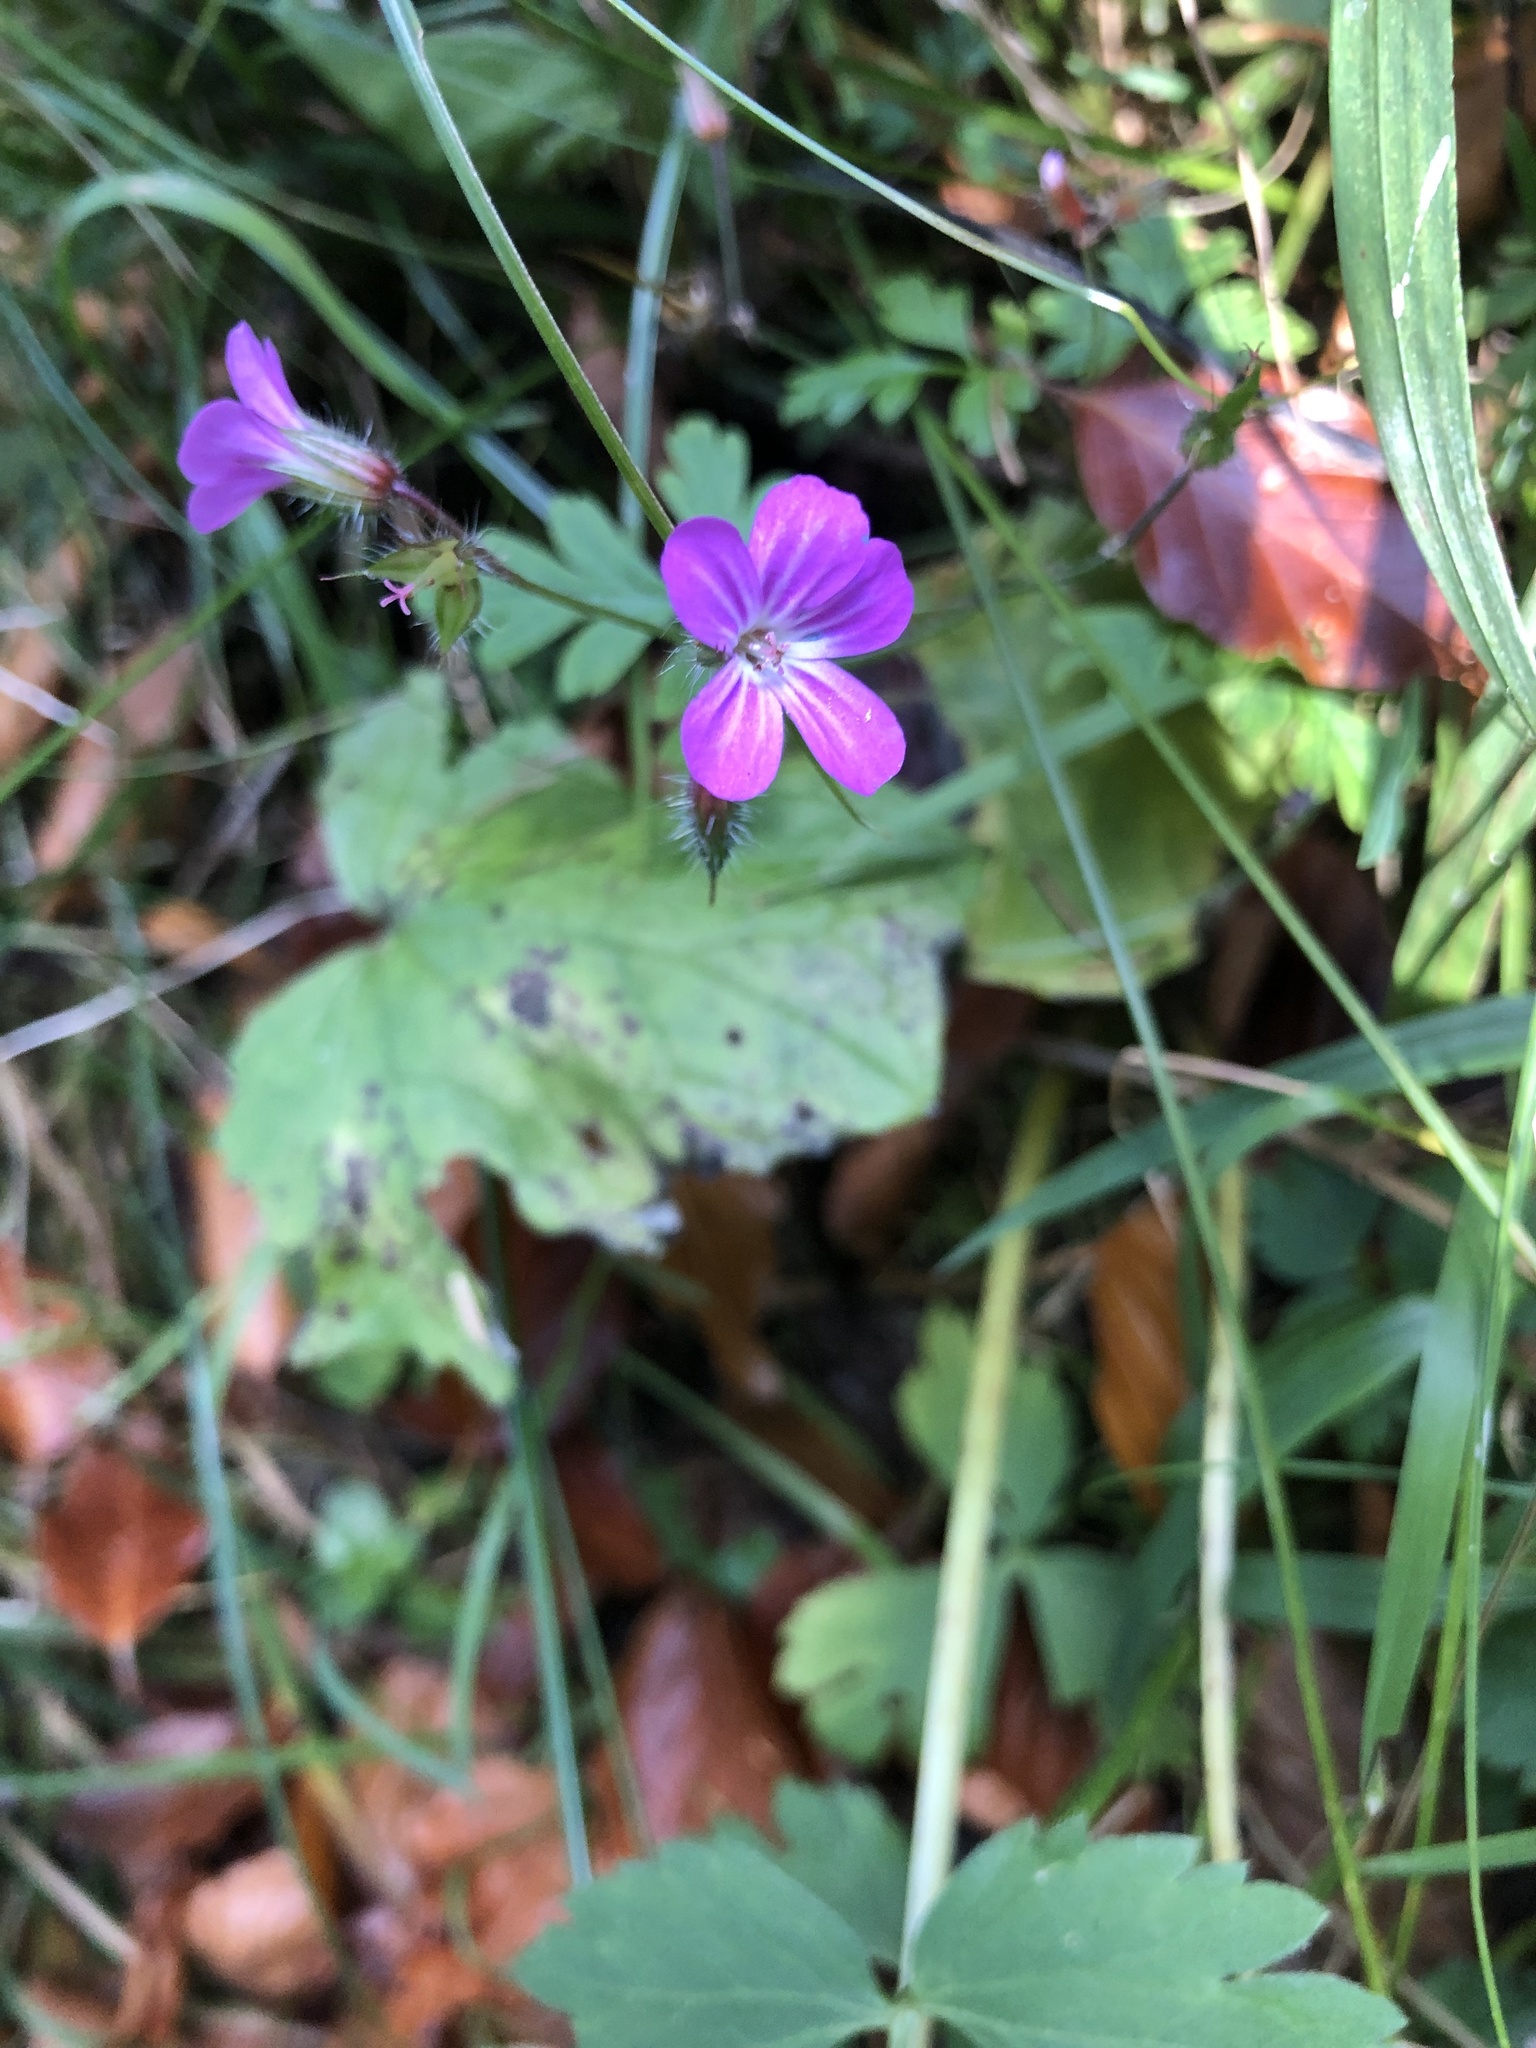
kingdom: Plantae
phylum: Tracheophyta
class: Magnoliopsida
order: Geraniales
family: Geraniaceae
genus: Geranium
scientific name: Geranium robertianum
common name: Herb-robert
